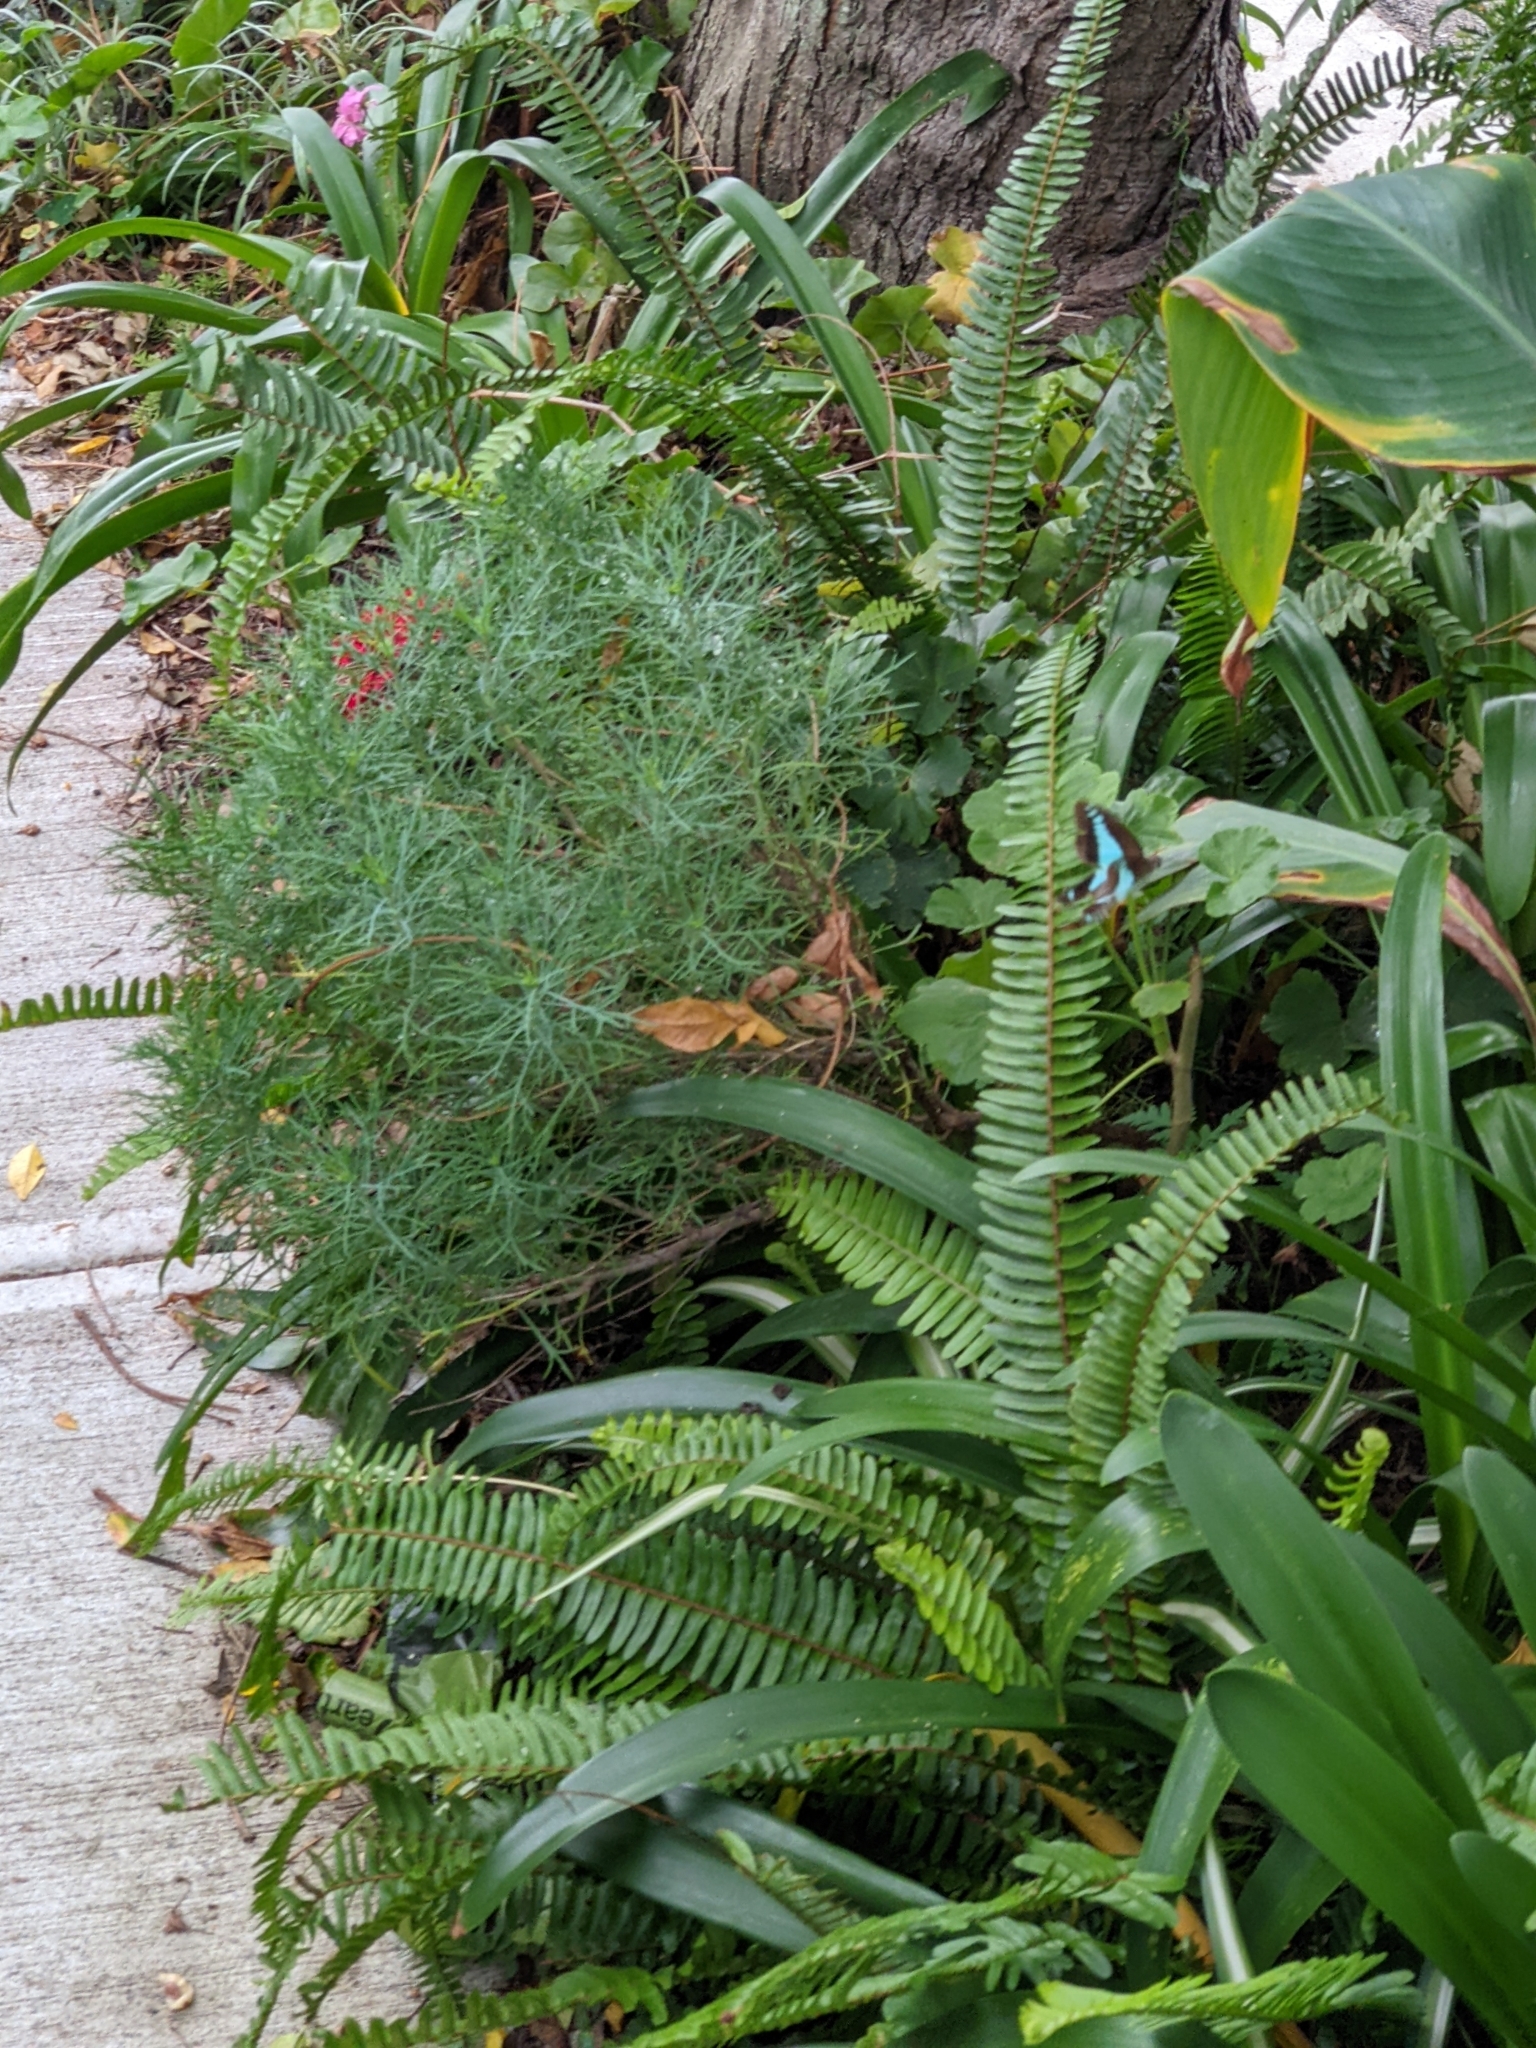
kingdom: Animalia
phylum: Arthropoda
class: Insecta
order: Lepidoptera
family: Papilionidae
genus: Graphium
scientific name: Graphium
